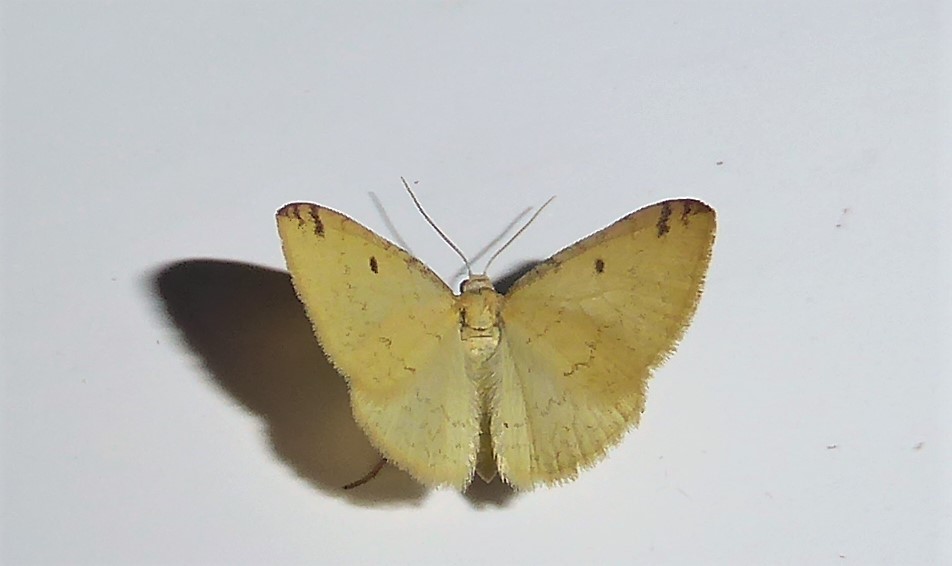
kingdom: Animalia
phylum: Arthropoda
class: Insecta
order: Lepidoptera
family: Geometridae
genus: Epiphryne
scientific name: Epiphryne undosata
